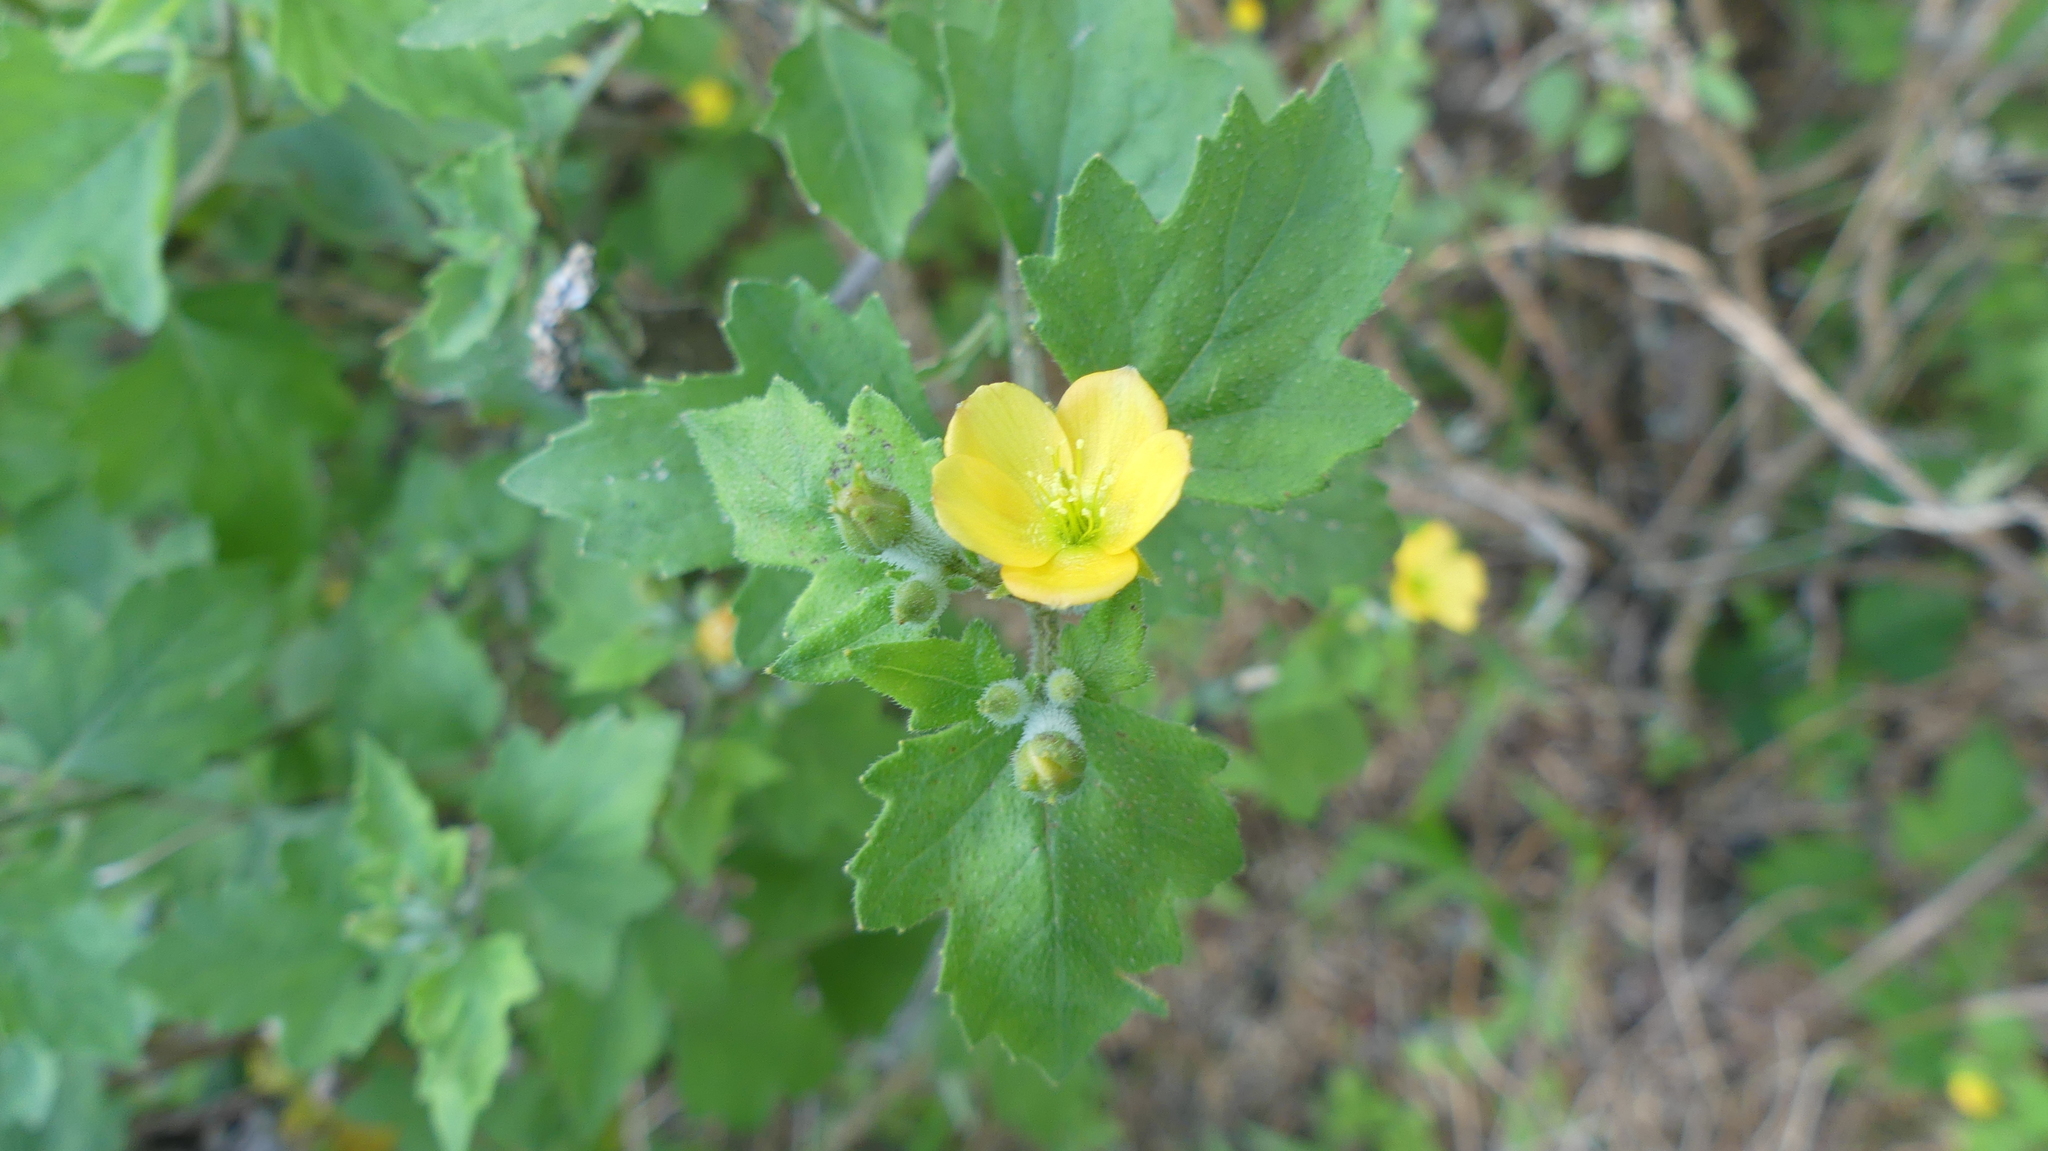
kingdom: Plantae
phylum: Tracheophyta
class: Magnoliopsida
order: Cornales
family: Loasaceae
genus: Mentzelia
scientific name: Mentzelia oligosperma
